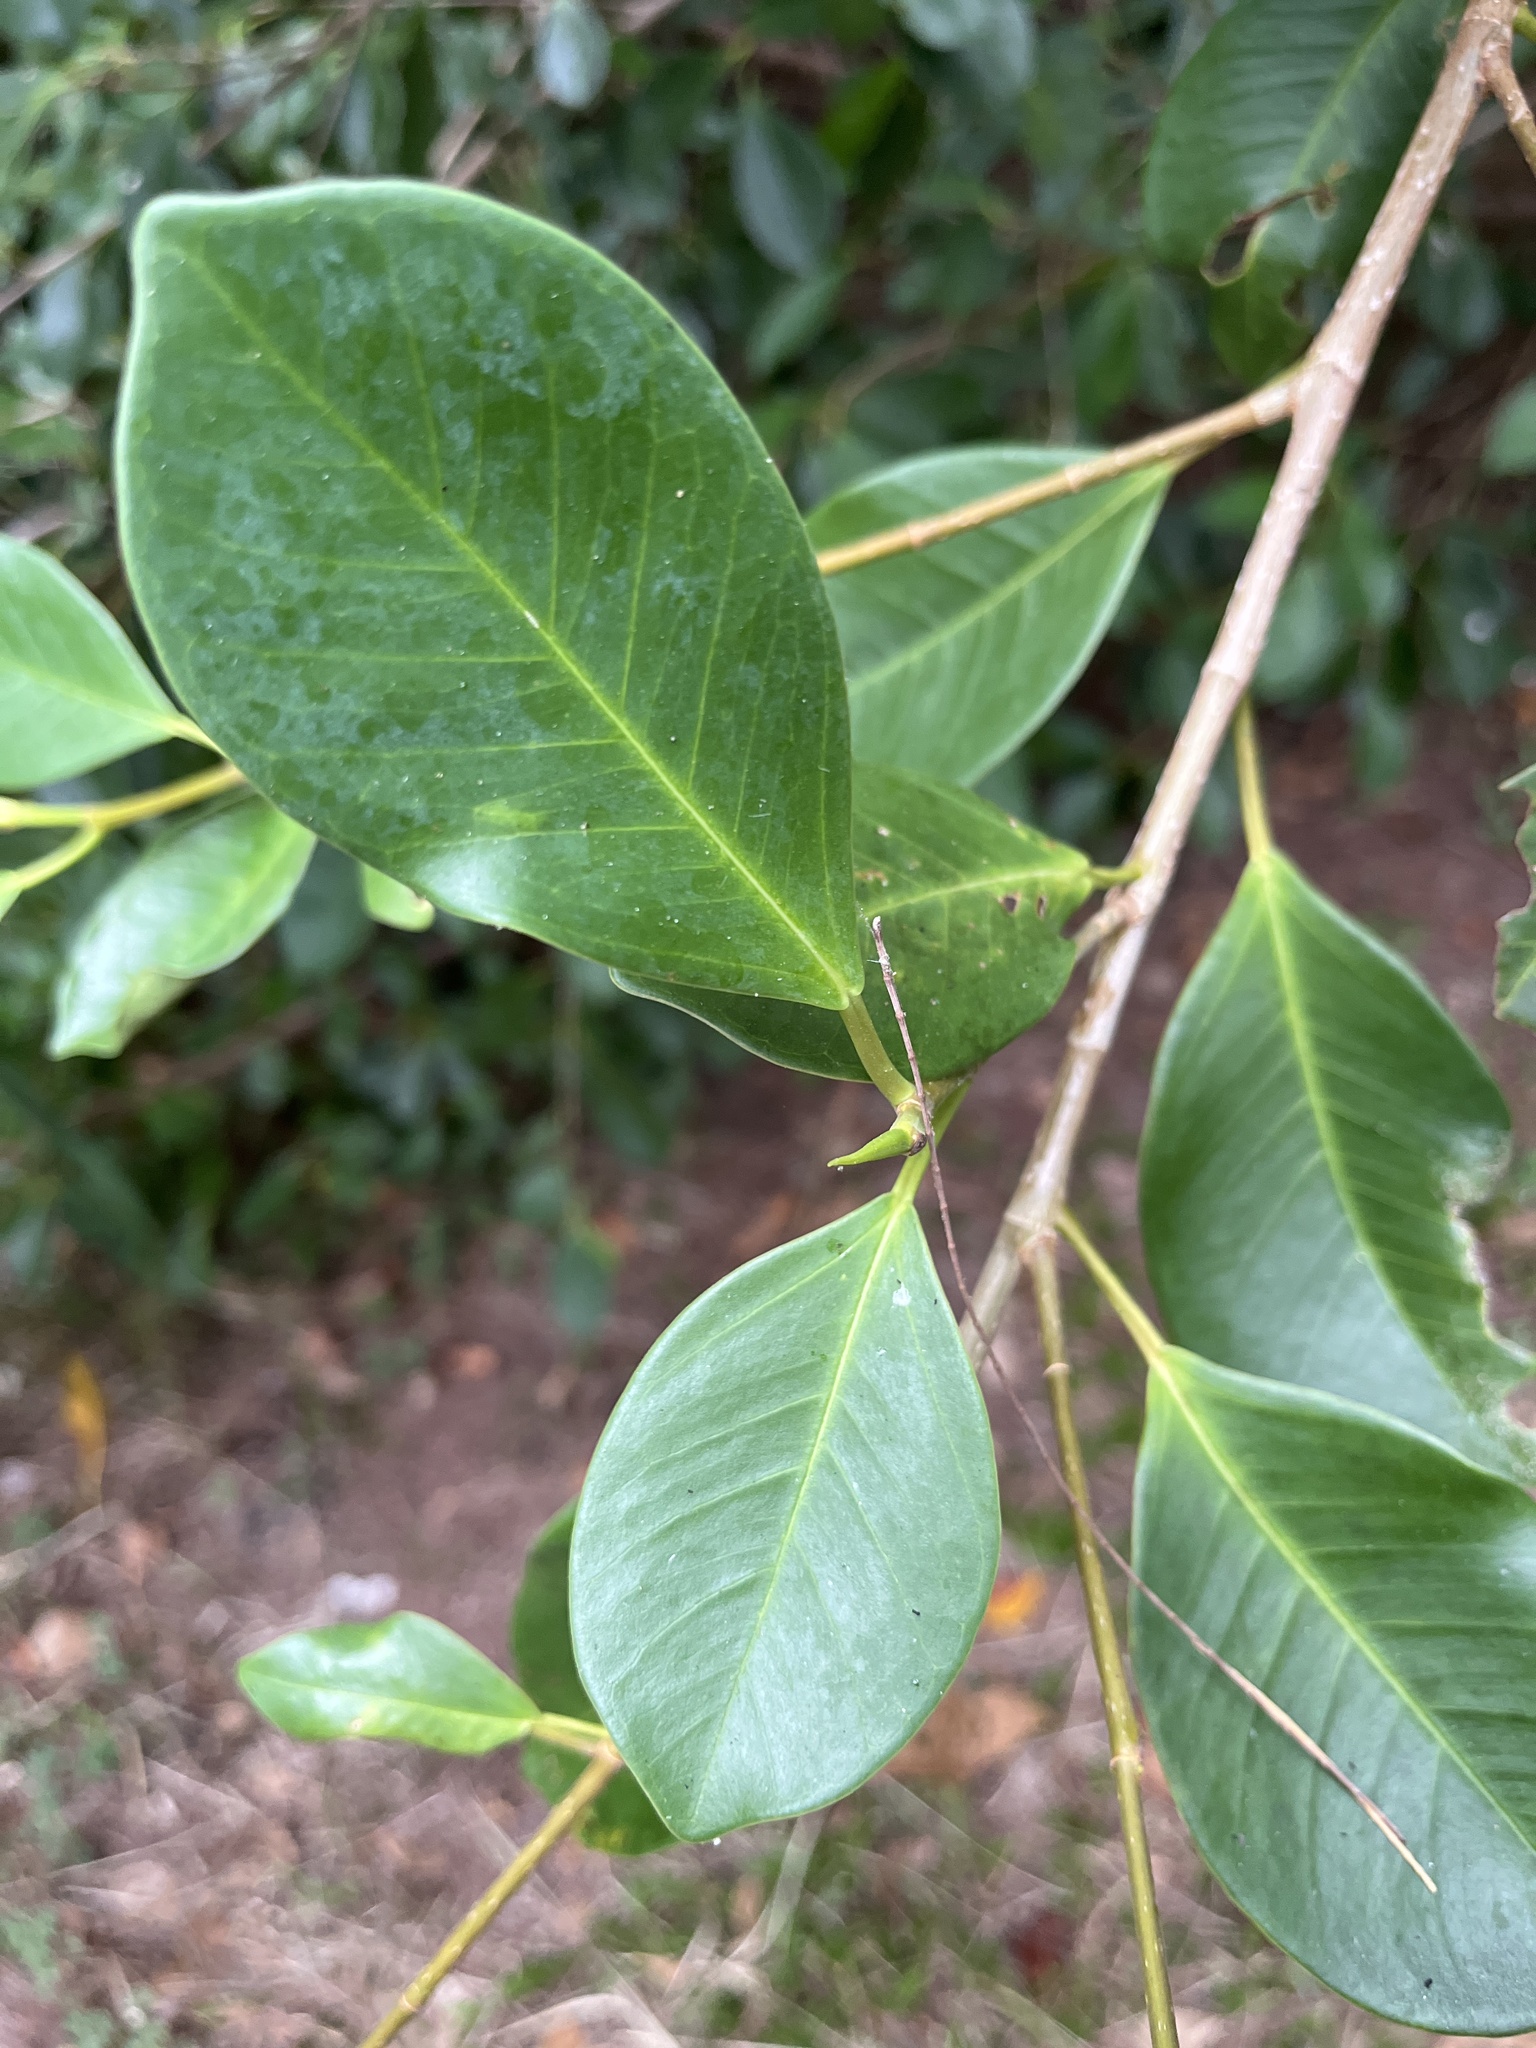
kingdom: Plantae
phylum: Tracheophyta
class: Magnoliopsida
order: Rosales
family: Moraceae
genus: Ficus
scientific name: Ficus microcarpa
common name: Chinese banyan
